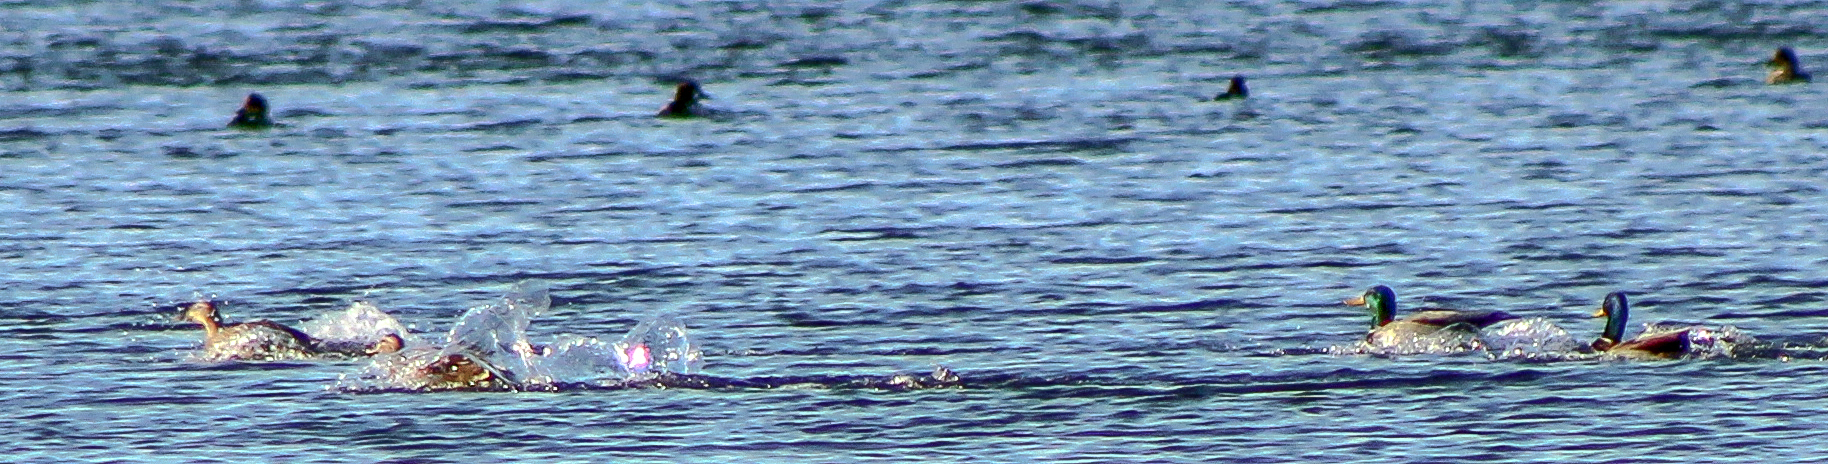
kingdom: Animalia
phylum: Chordata
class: Aves
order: Anseriformes
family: Anatidae
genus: Anas
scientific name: Anas platyrhynchos
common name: Mallard
